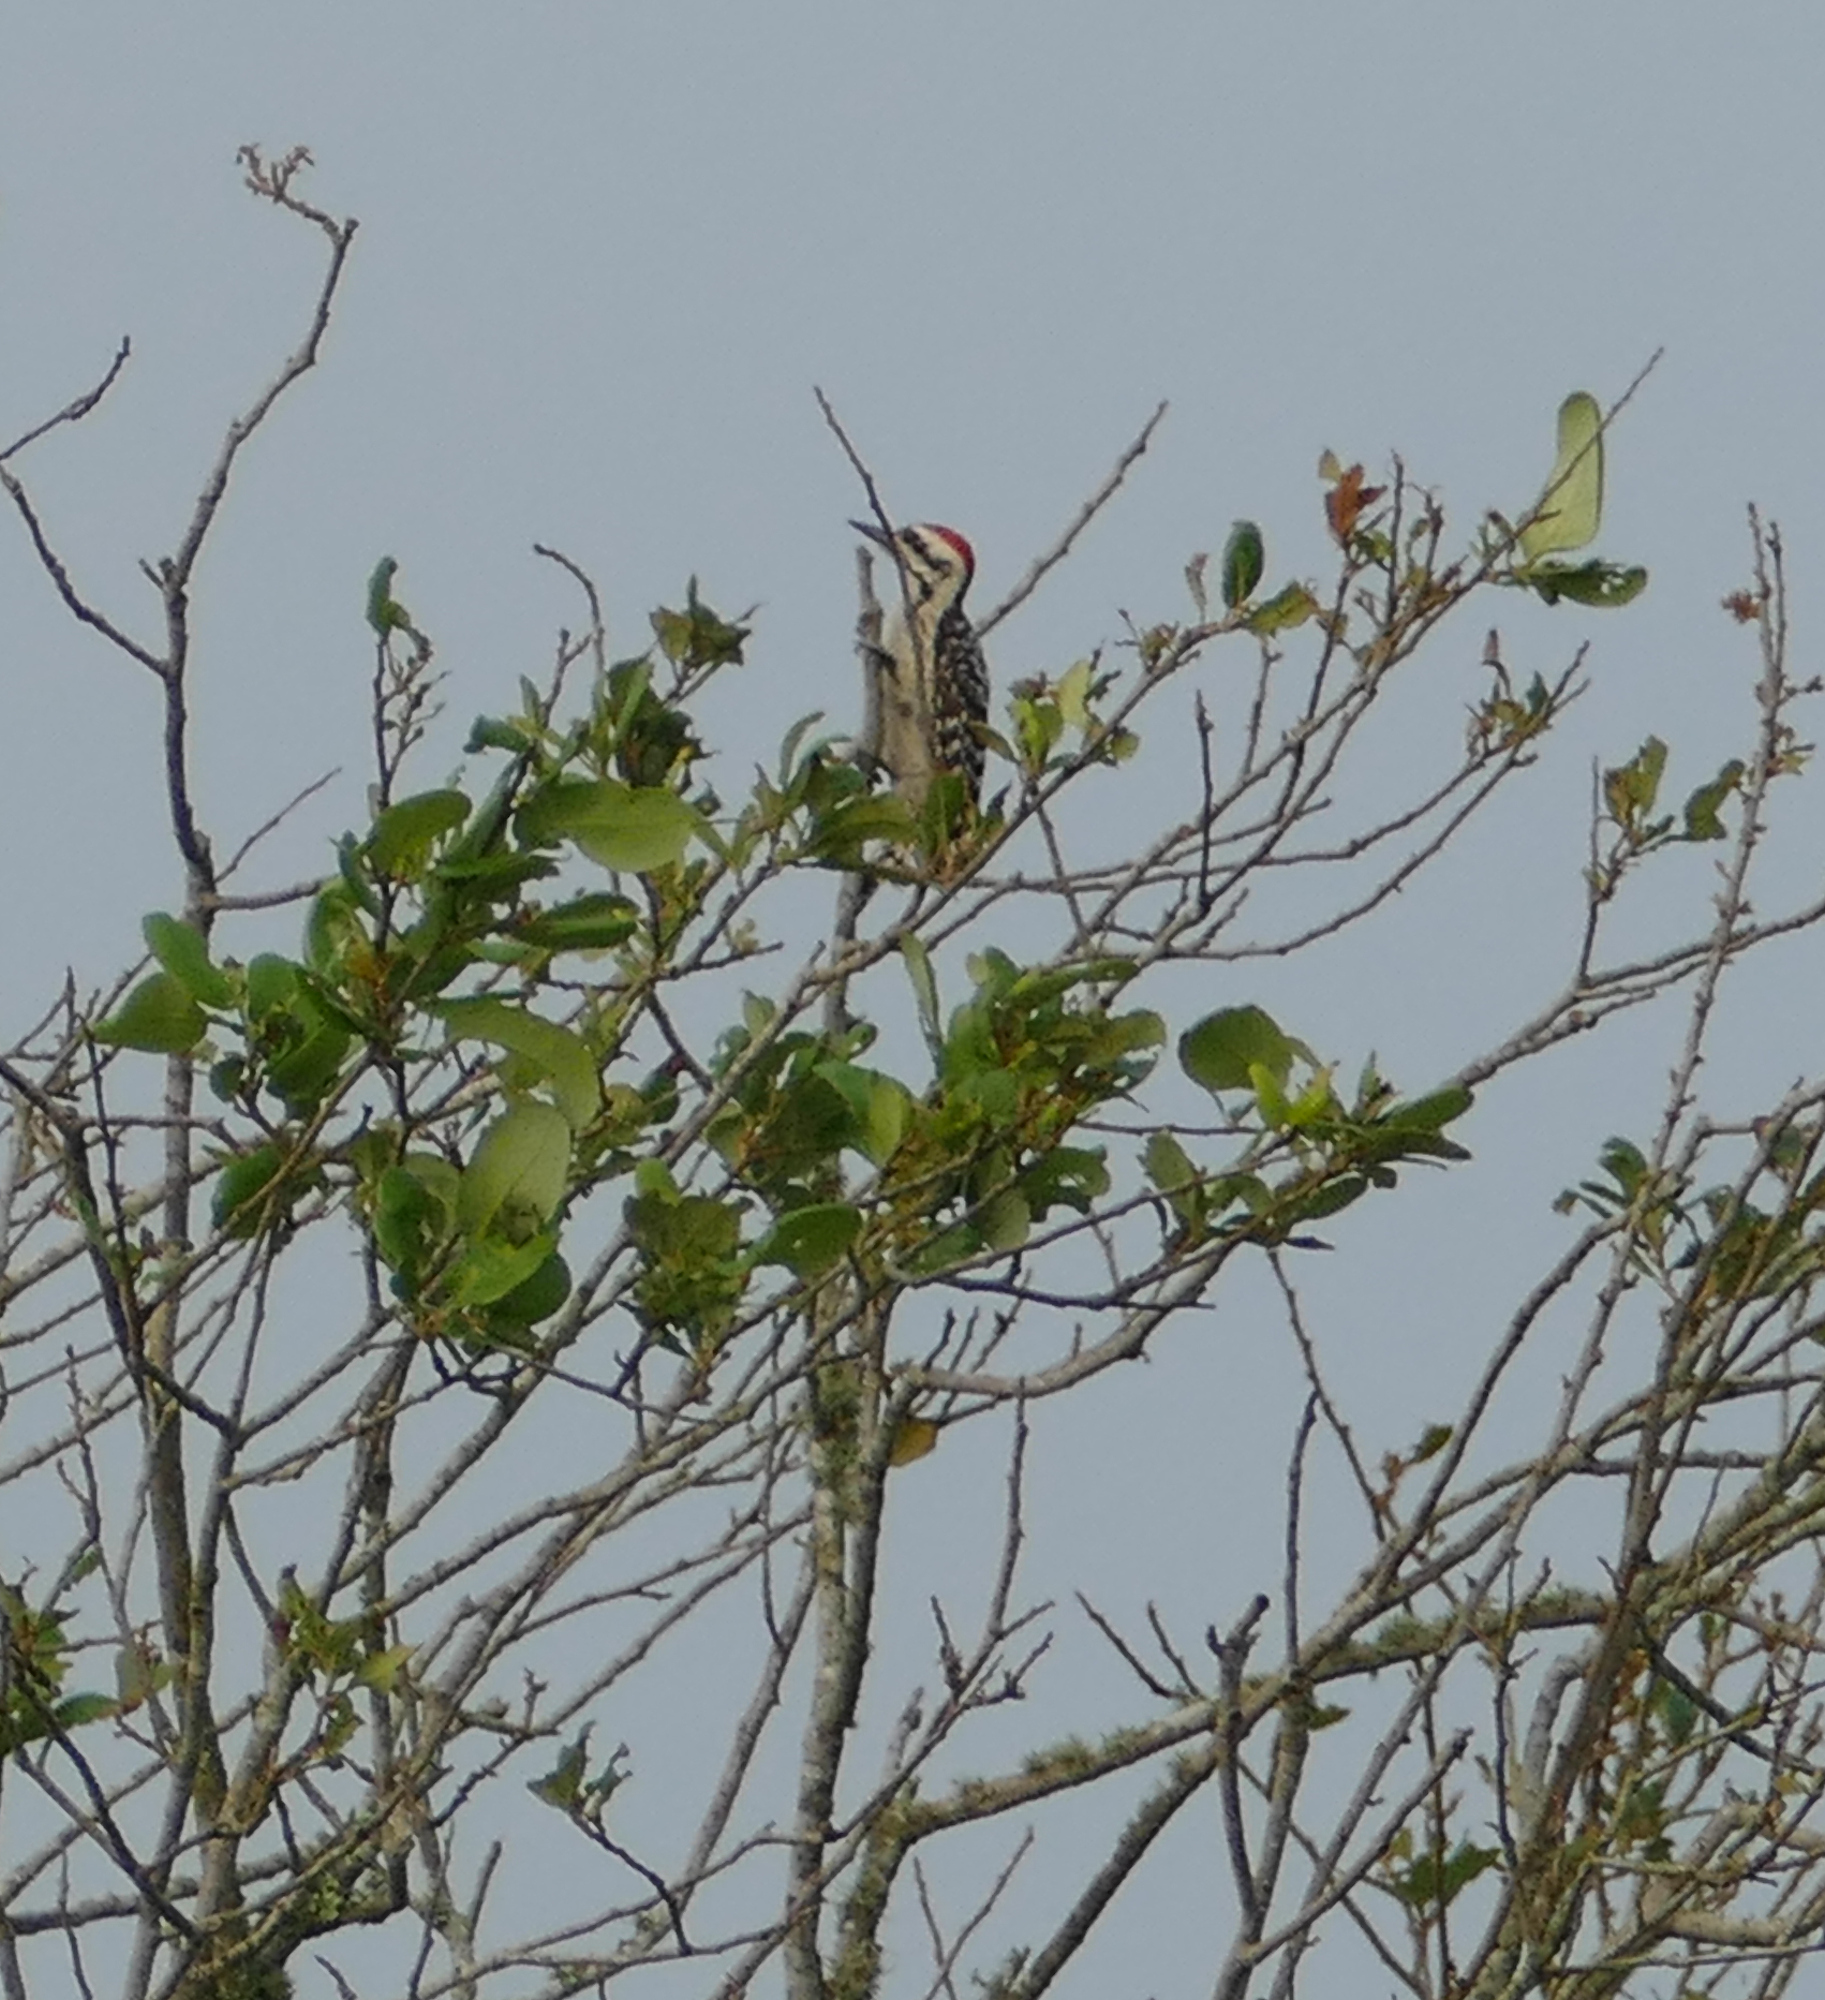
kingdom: Animalia
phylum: Chordata
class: Aves
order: Piciformes
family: Picidae
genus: Dryobates
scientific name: Dryobates scalaris
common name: Ladder-backed woodpecker
